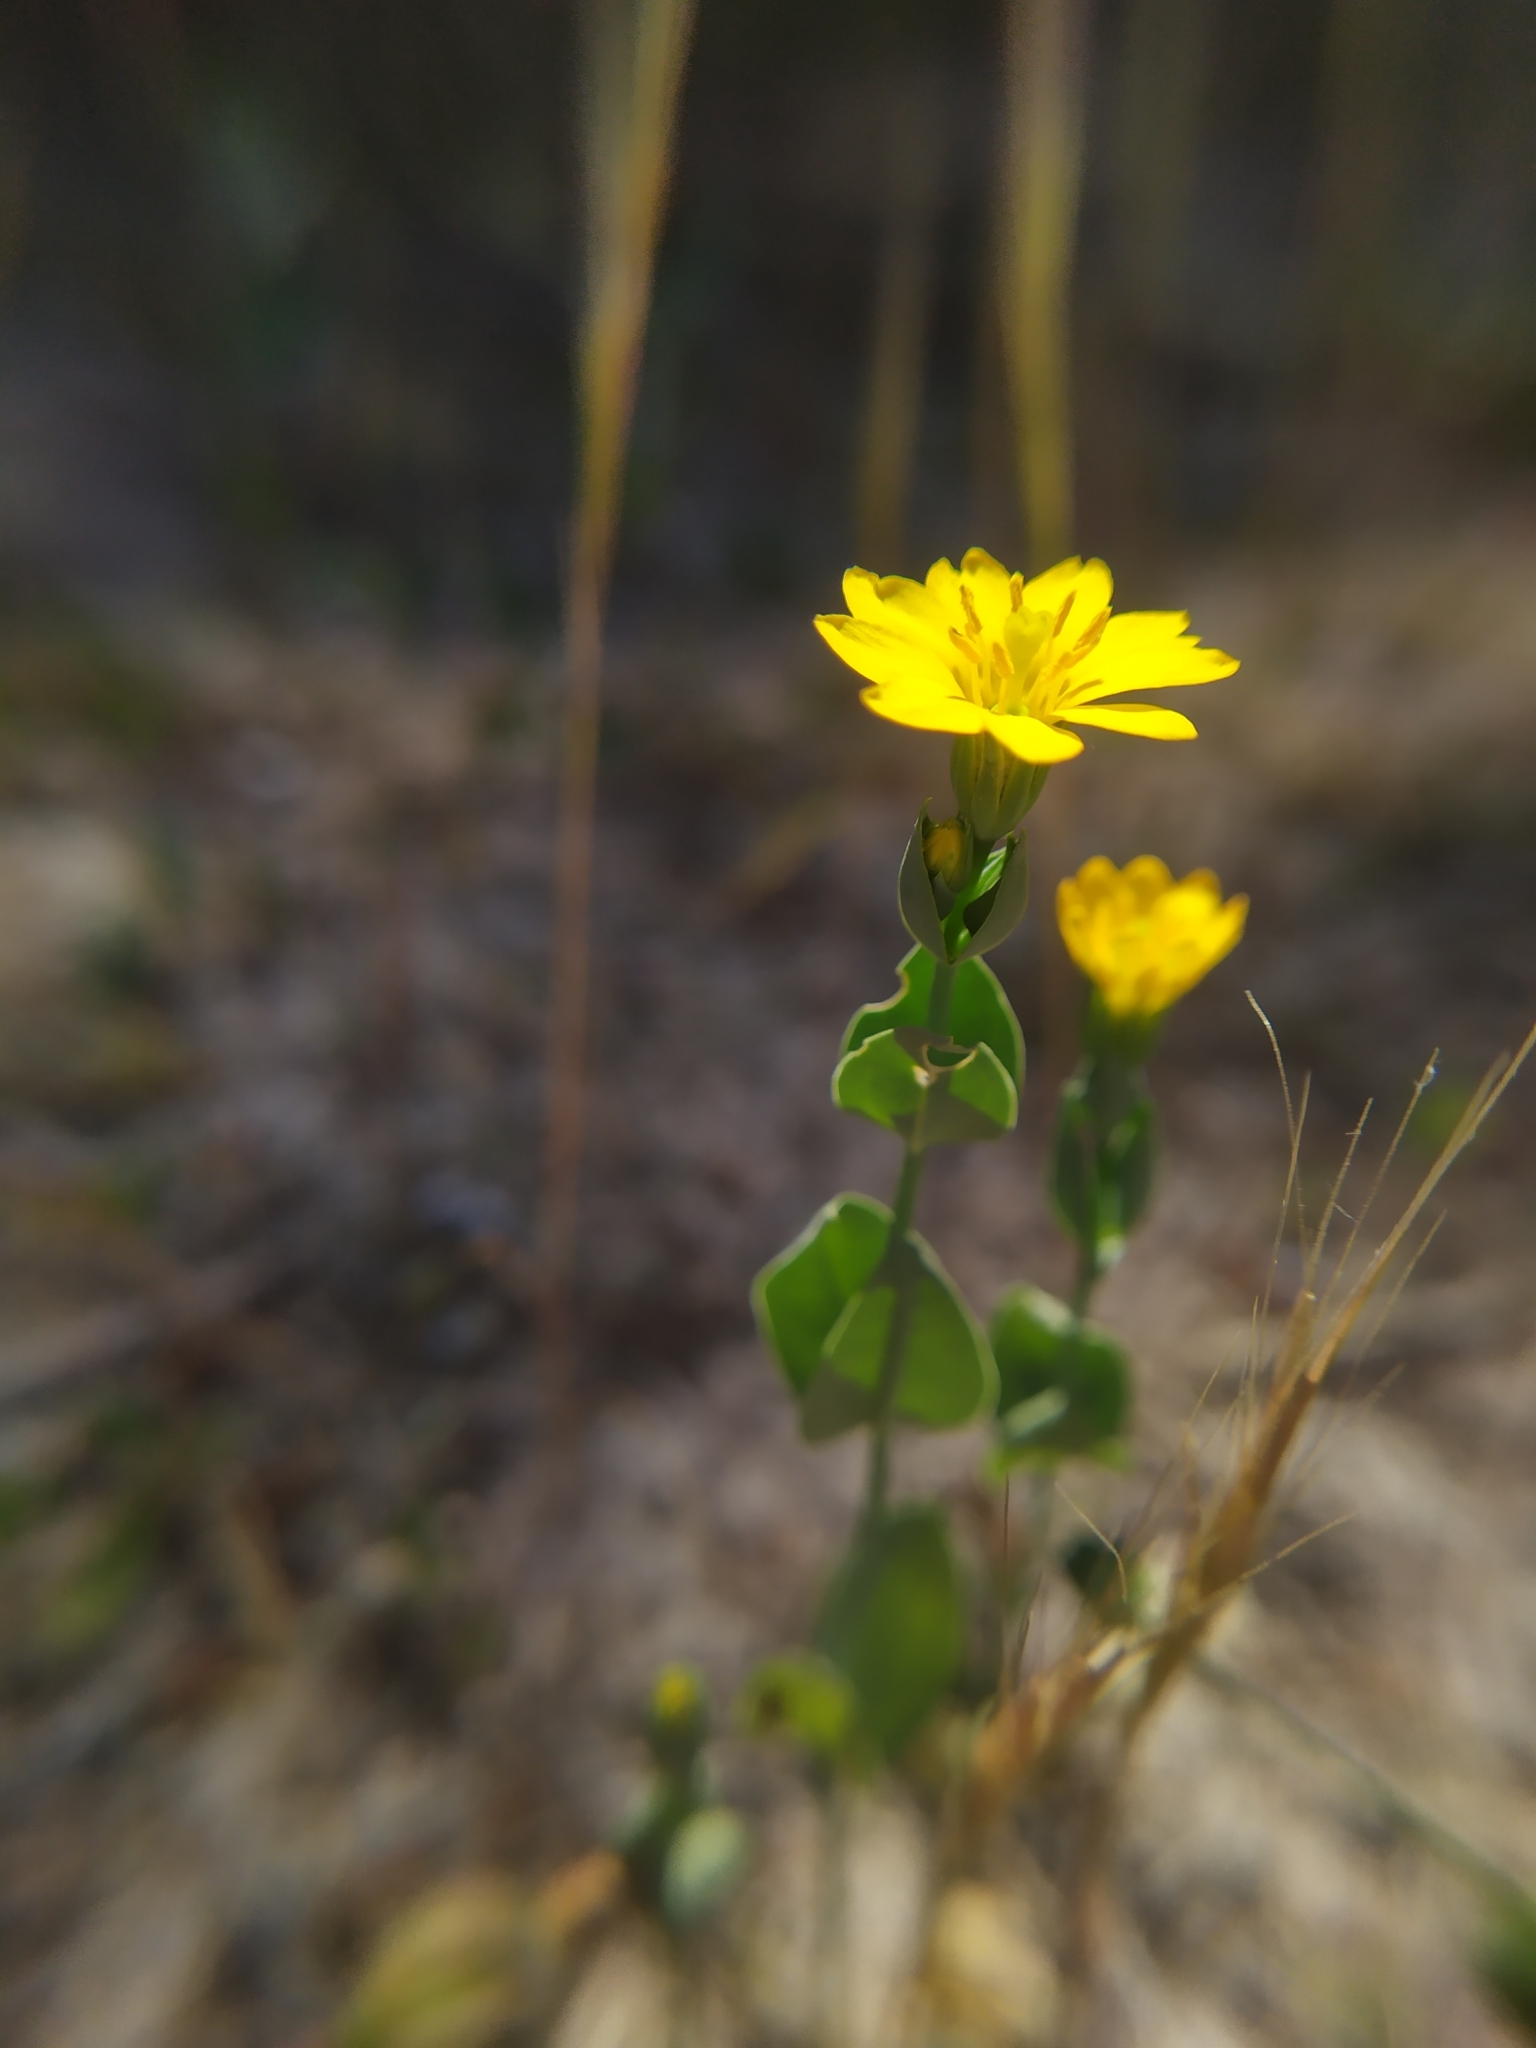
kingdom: Plantae
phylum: Tracheophyta
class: Magnoliopsida
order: Gentianales
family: Gentianaceae
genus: Blackstonia
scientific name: Blackstonia perfoliata
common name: Yellow-wort
